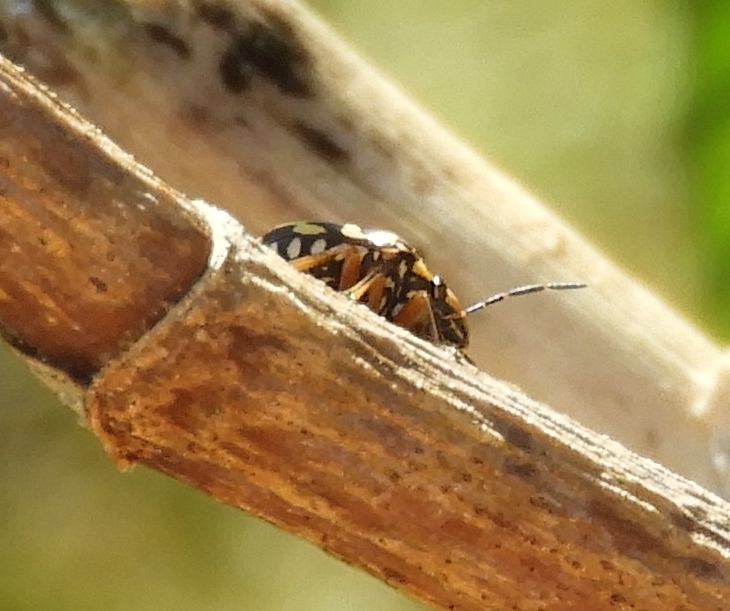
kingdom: Animalia
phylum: Arthropoda
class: Insecta
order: Hemiptera
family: Scutelleridae
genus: Orsilochides
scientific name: Orsilochides
